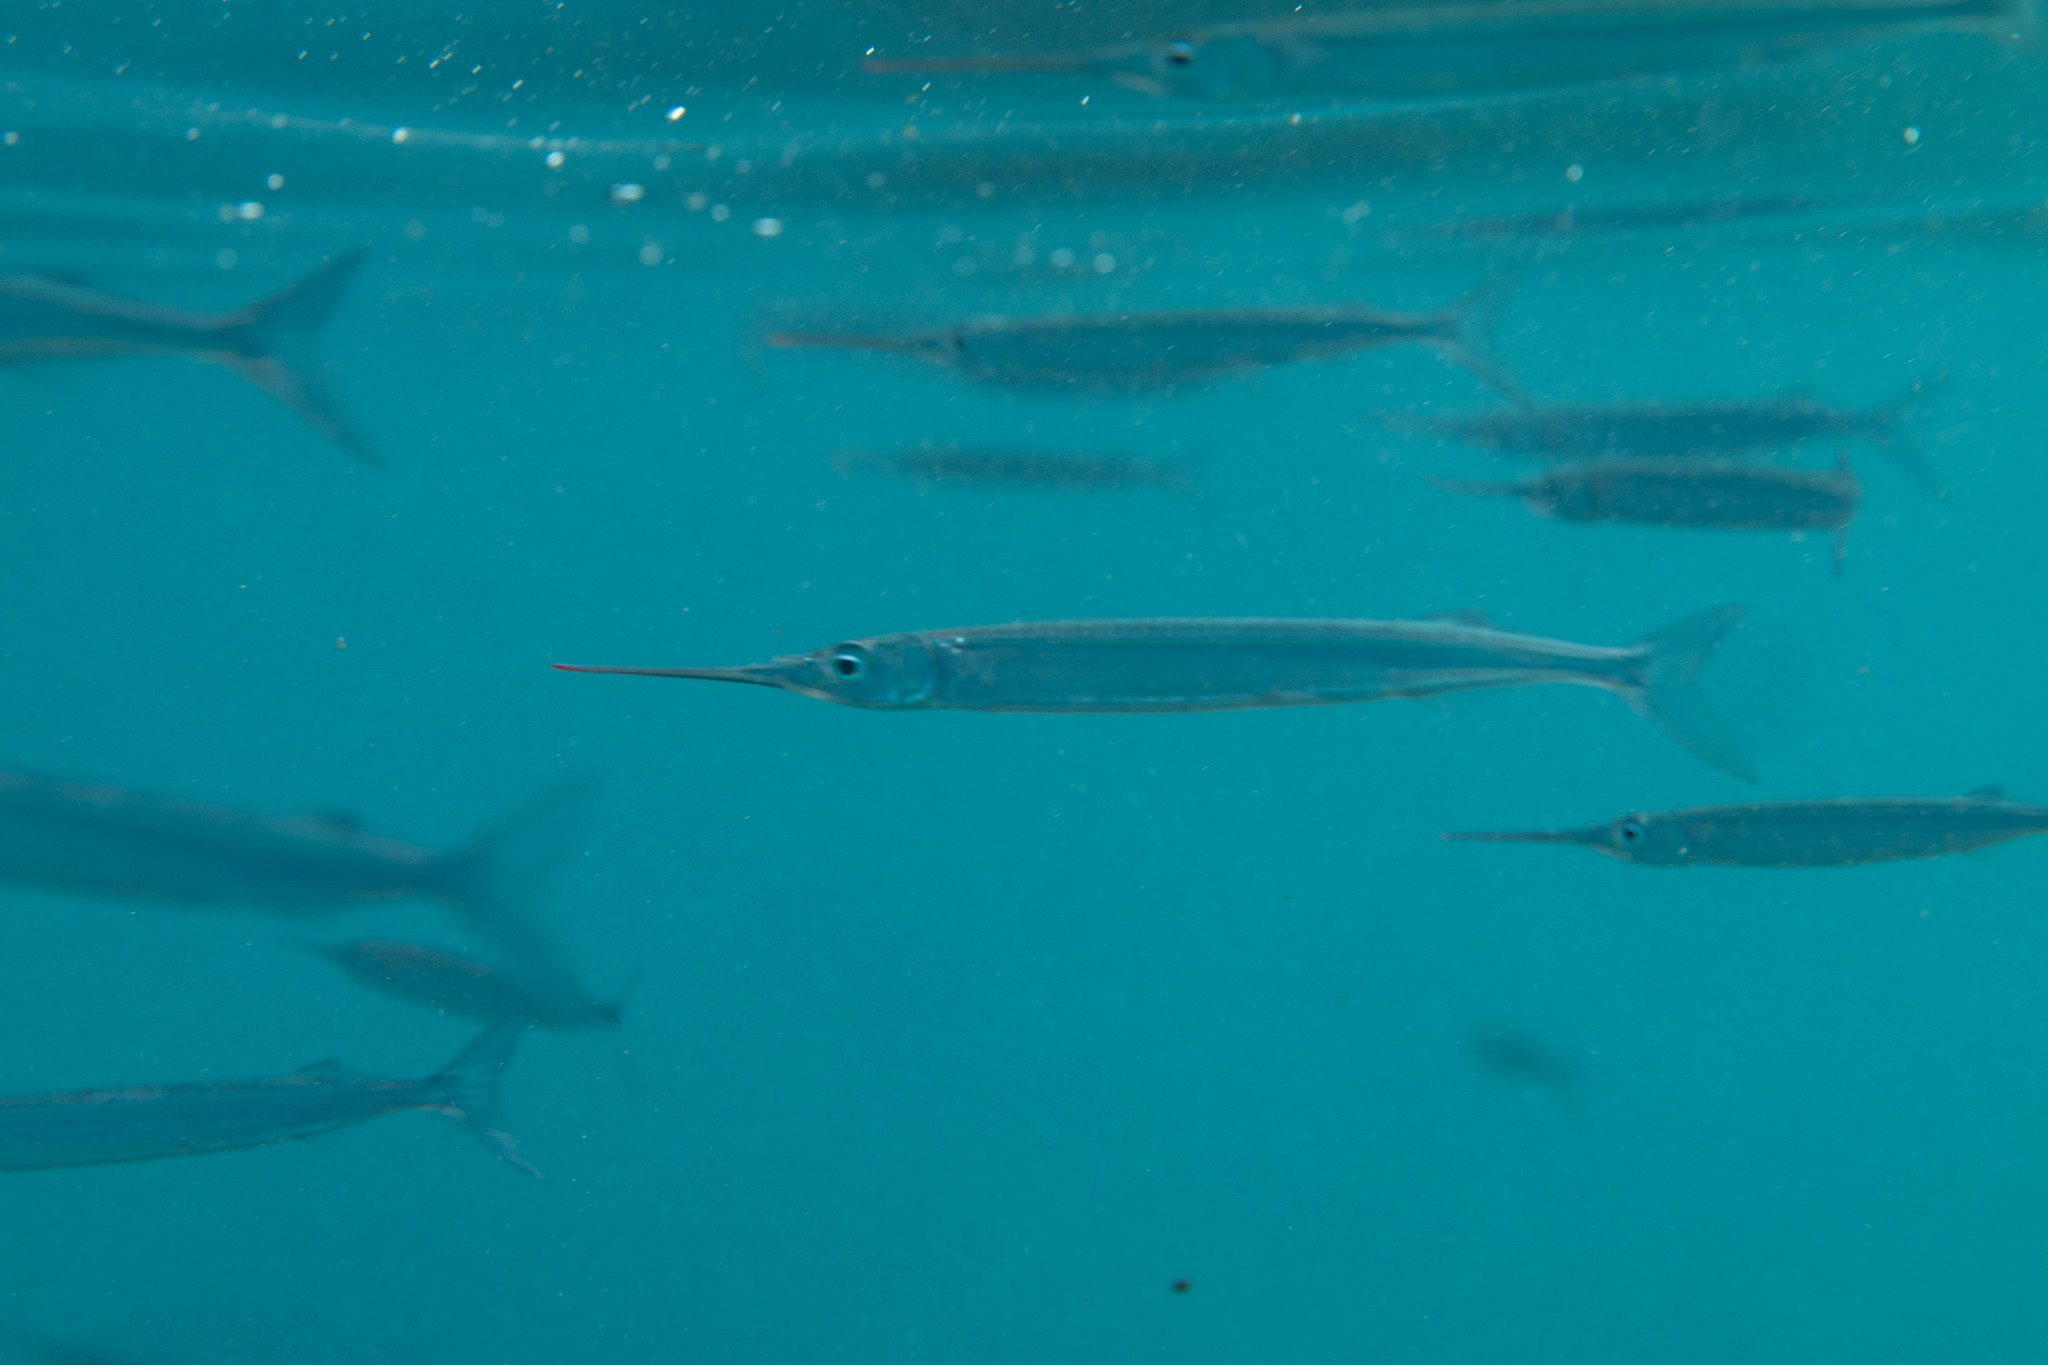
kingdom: Animalia
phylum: Chordata
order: Beloniformes
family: Hemiramphidae
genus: Hyporhamphus
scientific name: Hyporhamphus acutus
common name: Acute halfbeak
